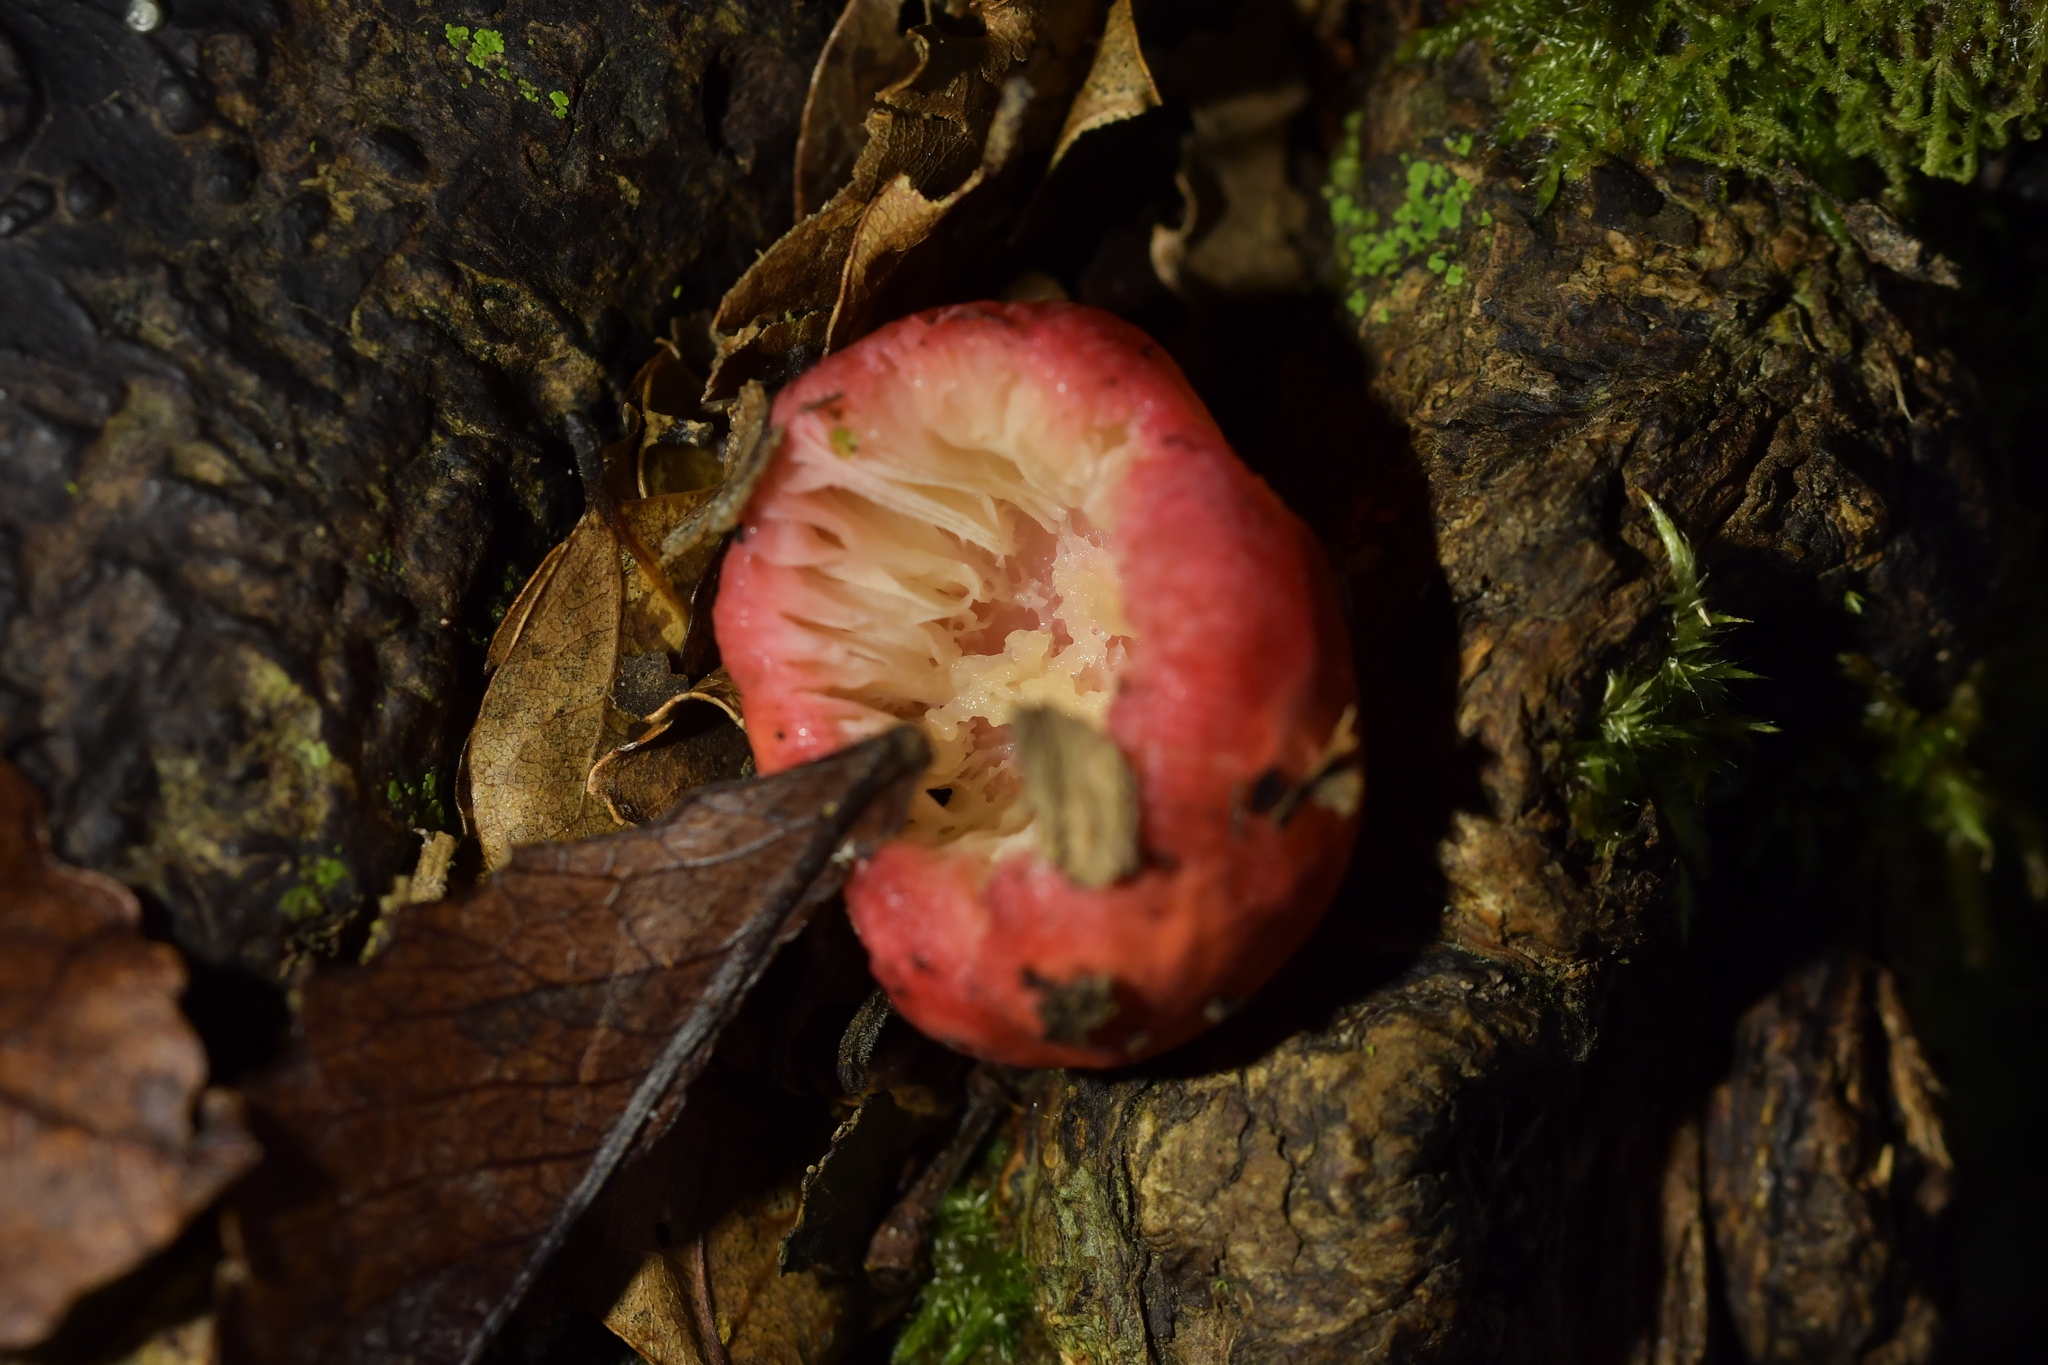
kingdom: Fungi
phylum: Basidiomycota
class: Agaricomycetes
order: Russulales
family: Russulaceae
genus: Russula
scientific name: Russula kermesina
